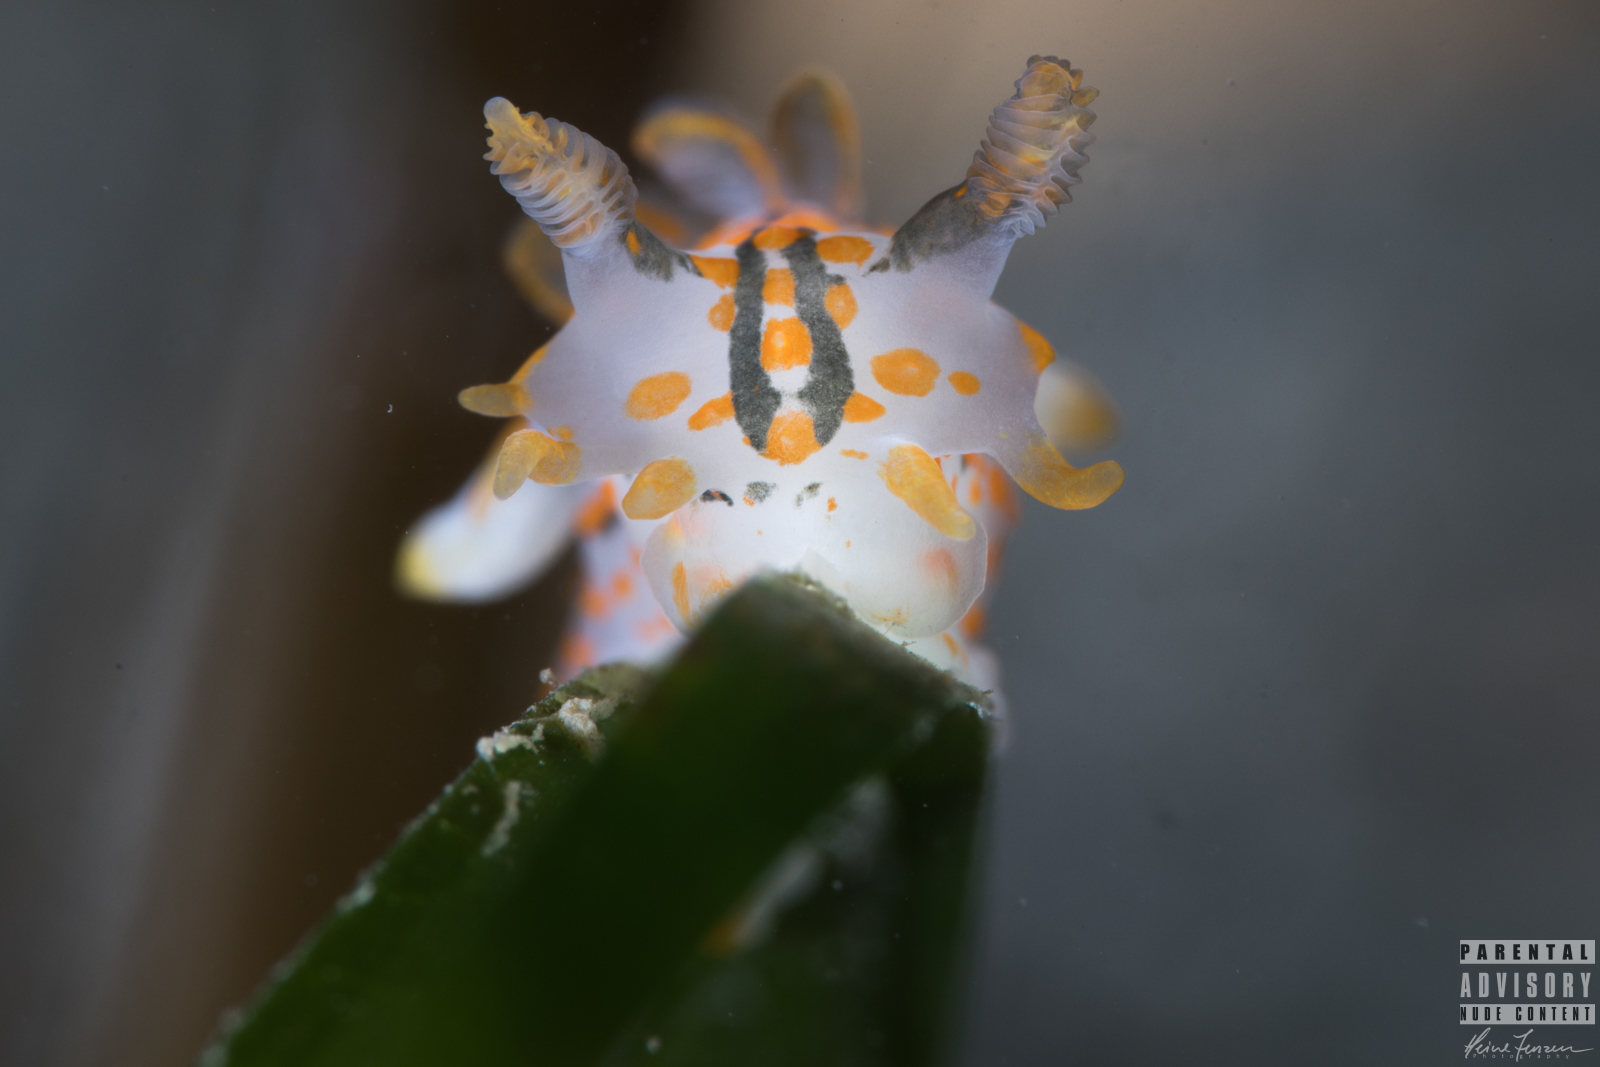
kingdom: Animalia
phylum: Mollusca
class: Gastropoda
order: Nudibranchia
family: Polyceridae
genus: Polycera
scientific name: Polycera quadrilineata
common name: Four-striped polycera
